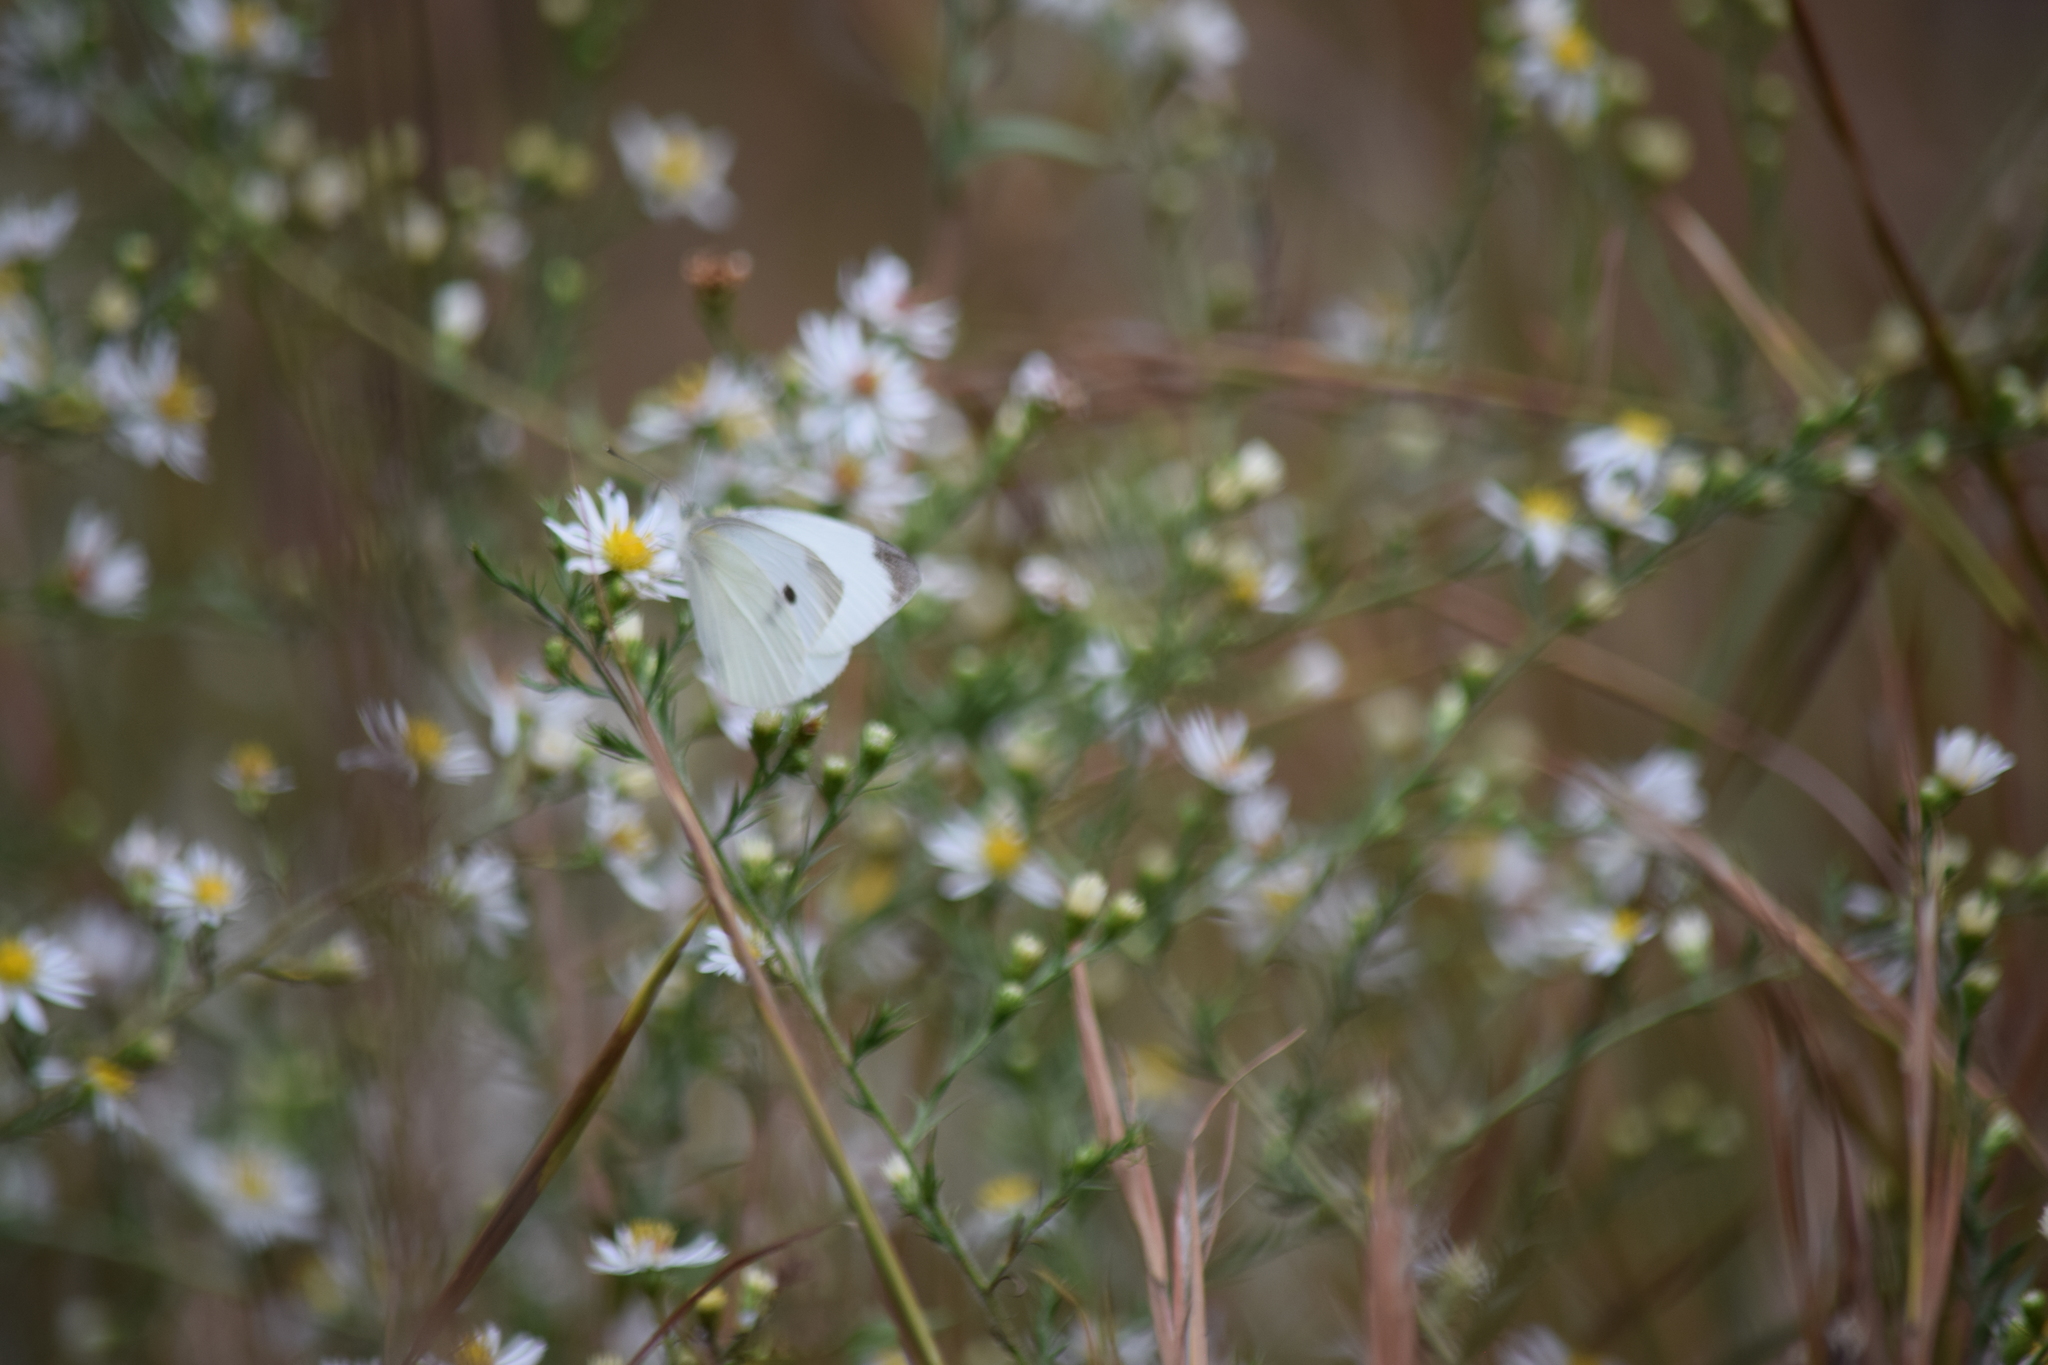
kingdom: Animalia
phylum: Arthropoda
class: Insecta
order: Lepidoptera
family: Pieridae
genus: Pieris
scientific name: Pieris rapae
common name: Small white
